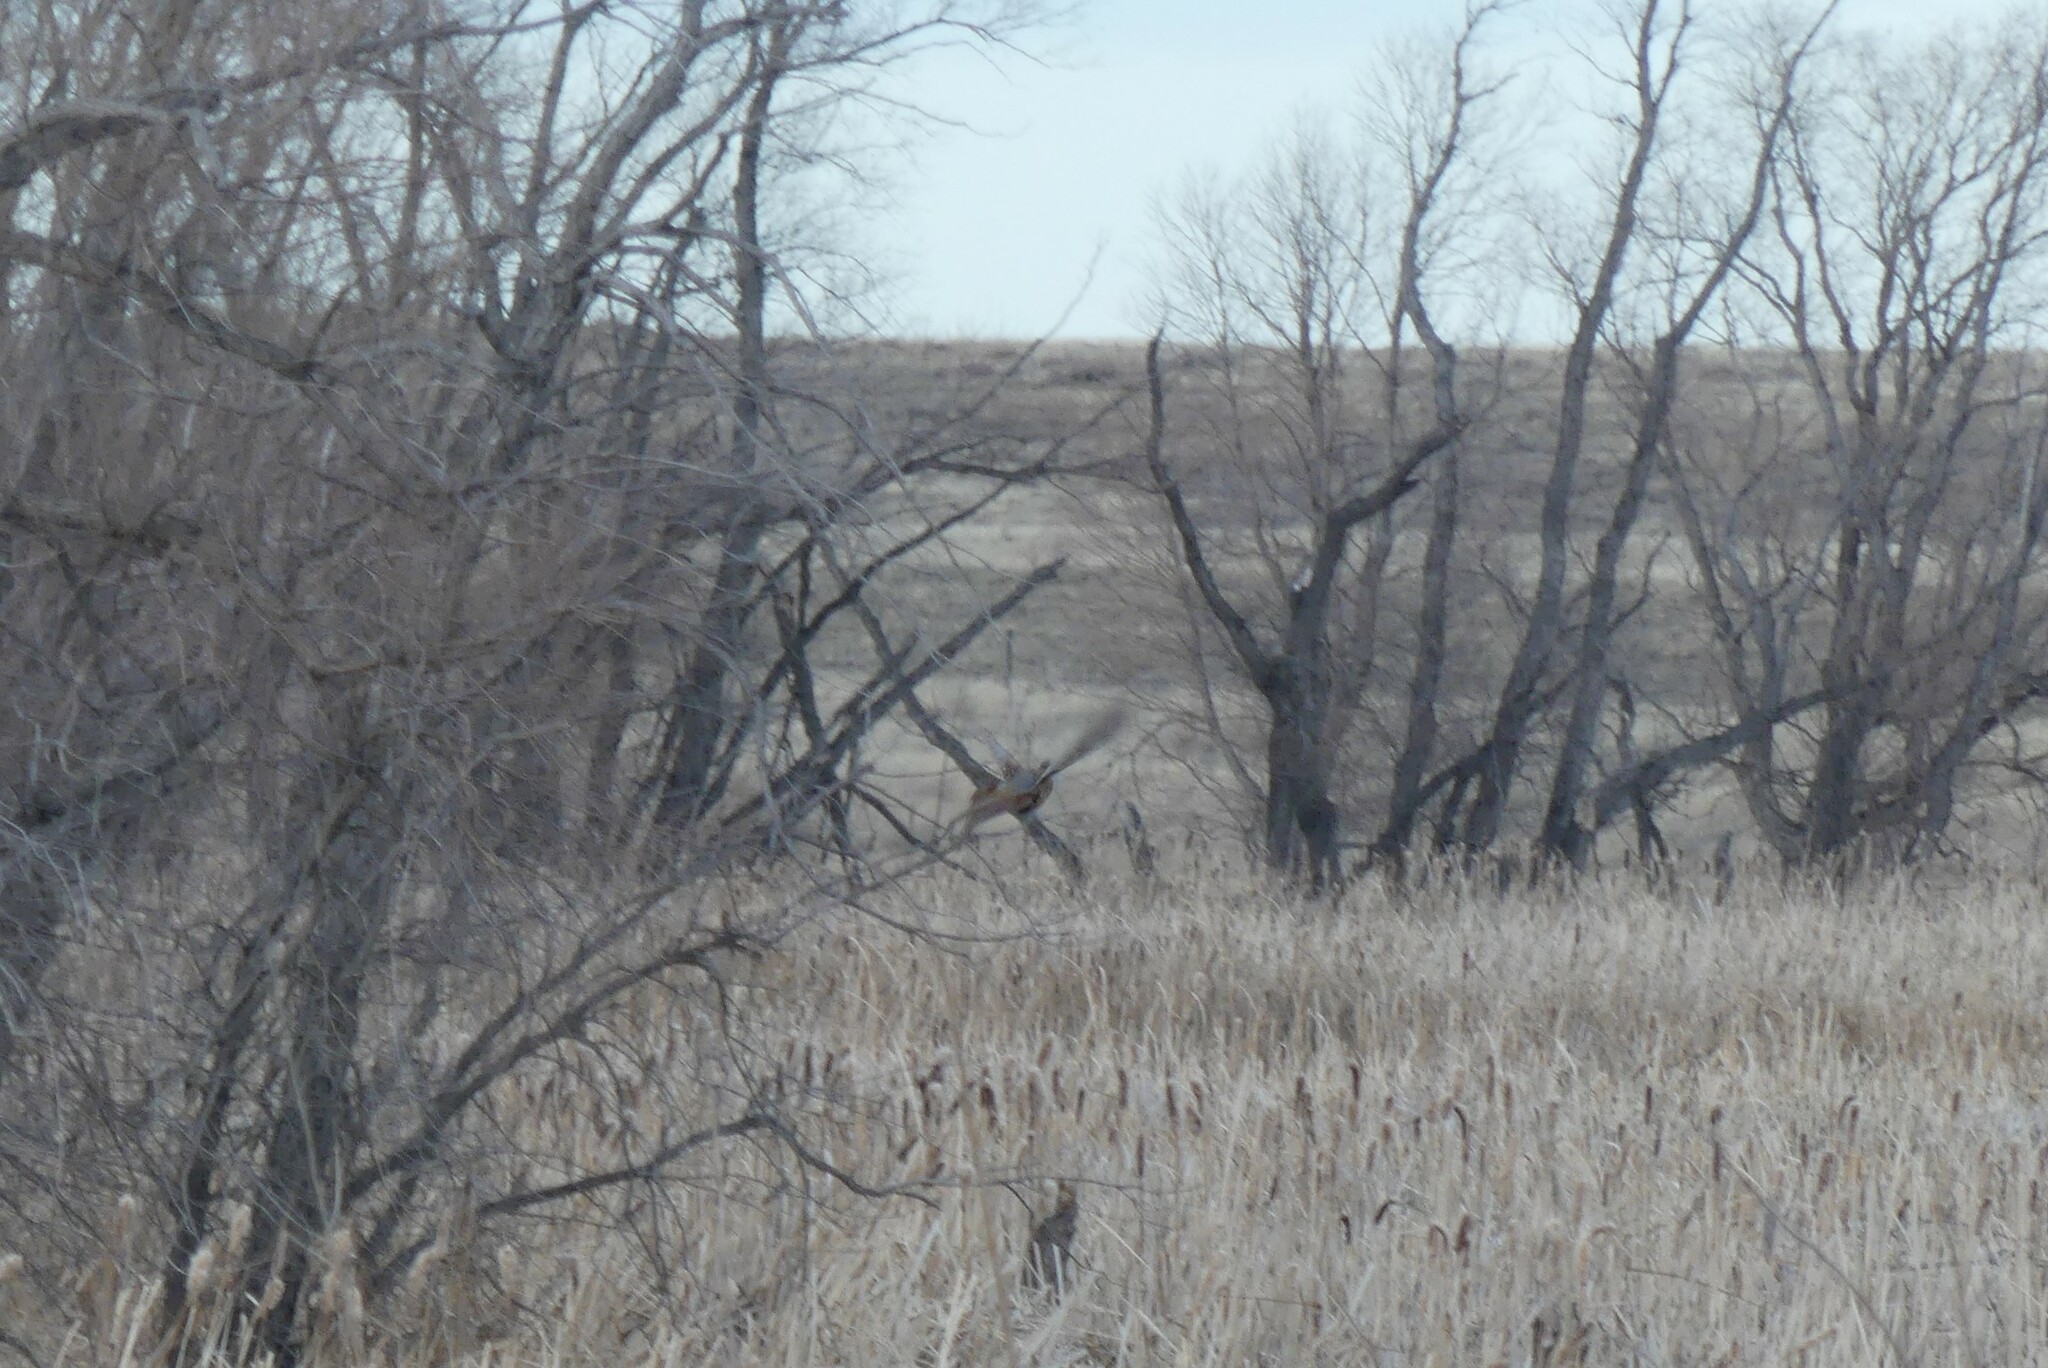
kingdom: Animalia
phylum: Chordata
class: Aves
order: Galliformes
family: Phasianidae
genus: Phasianus
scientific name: Phasianus colchicus
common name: Common pheasant
